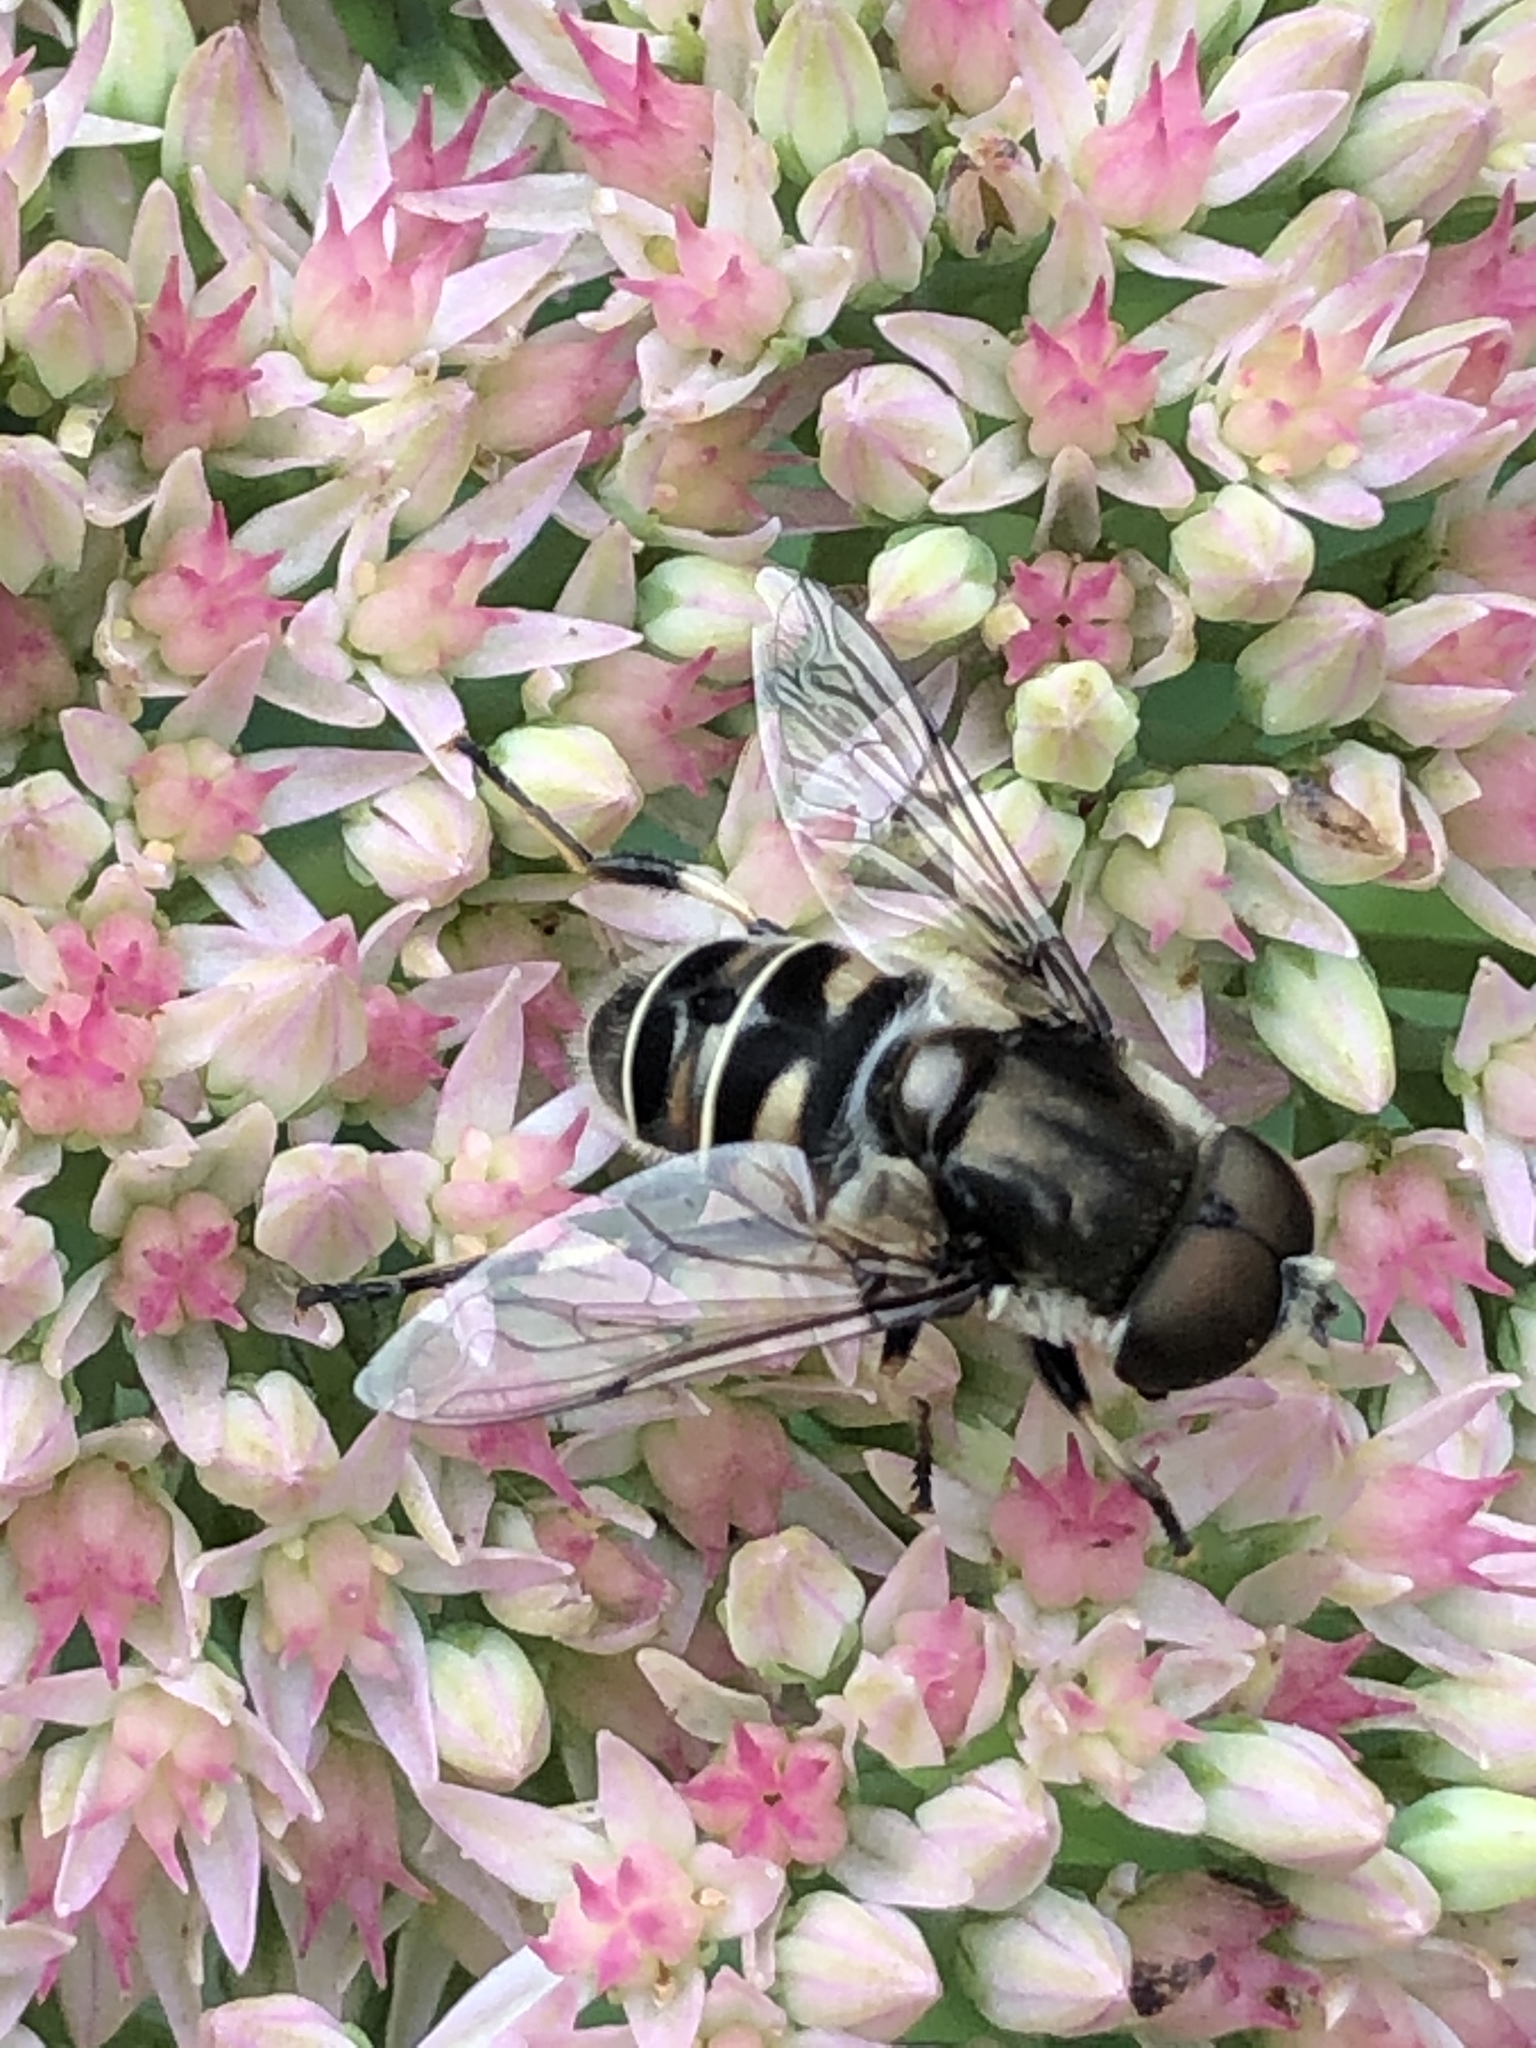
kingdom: Animalia
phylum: Arthropoda
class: Insecta
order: Diptera
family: Syrphidae
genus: Eristalis
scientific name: Eristalis dimidiata
